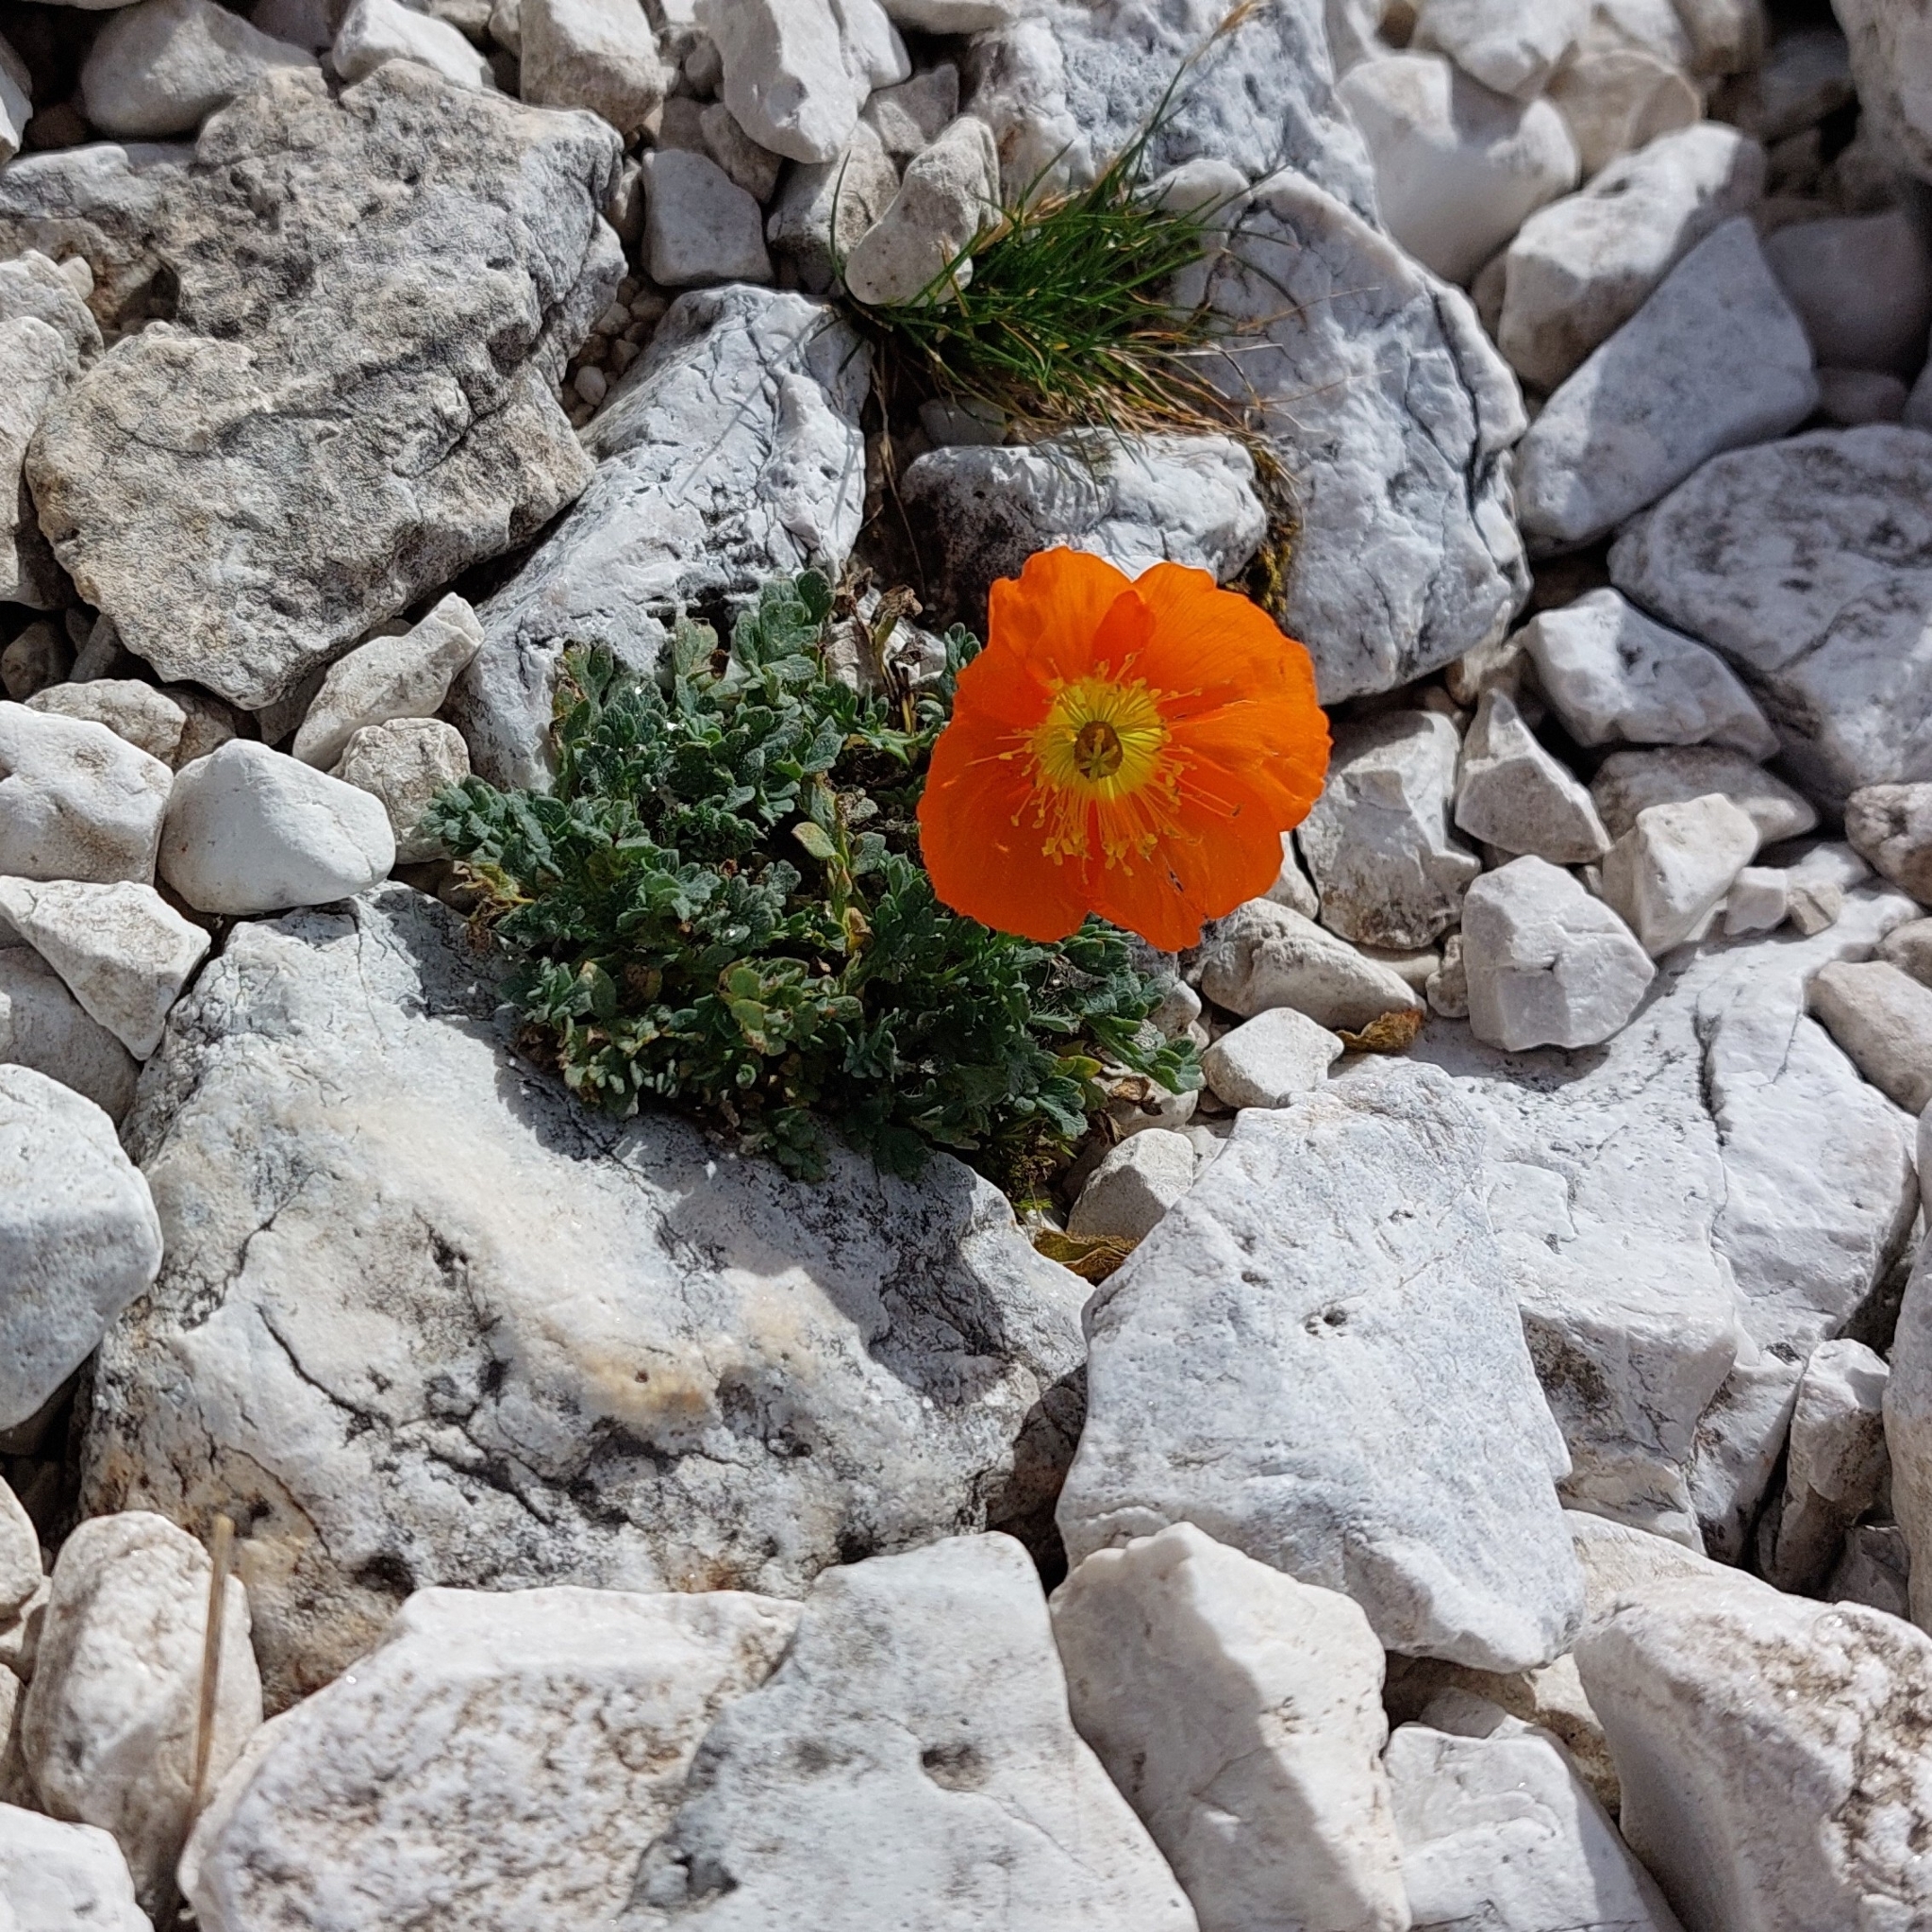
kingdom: Plantae
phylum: Tracheophyta
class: Magnoliopsida
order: Ranunculales
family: Papaveraceae
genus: Papaver
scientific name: Papaver alpinum
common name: Austrian poppy
